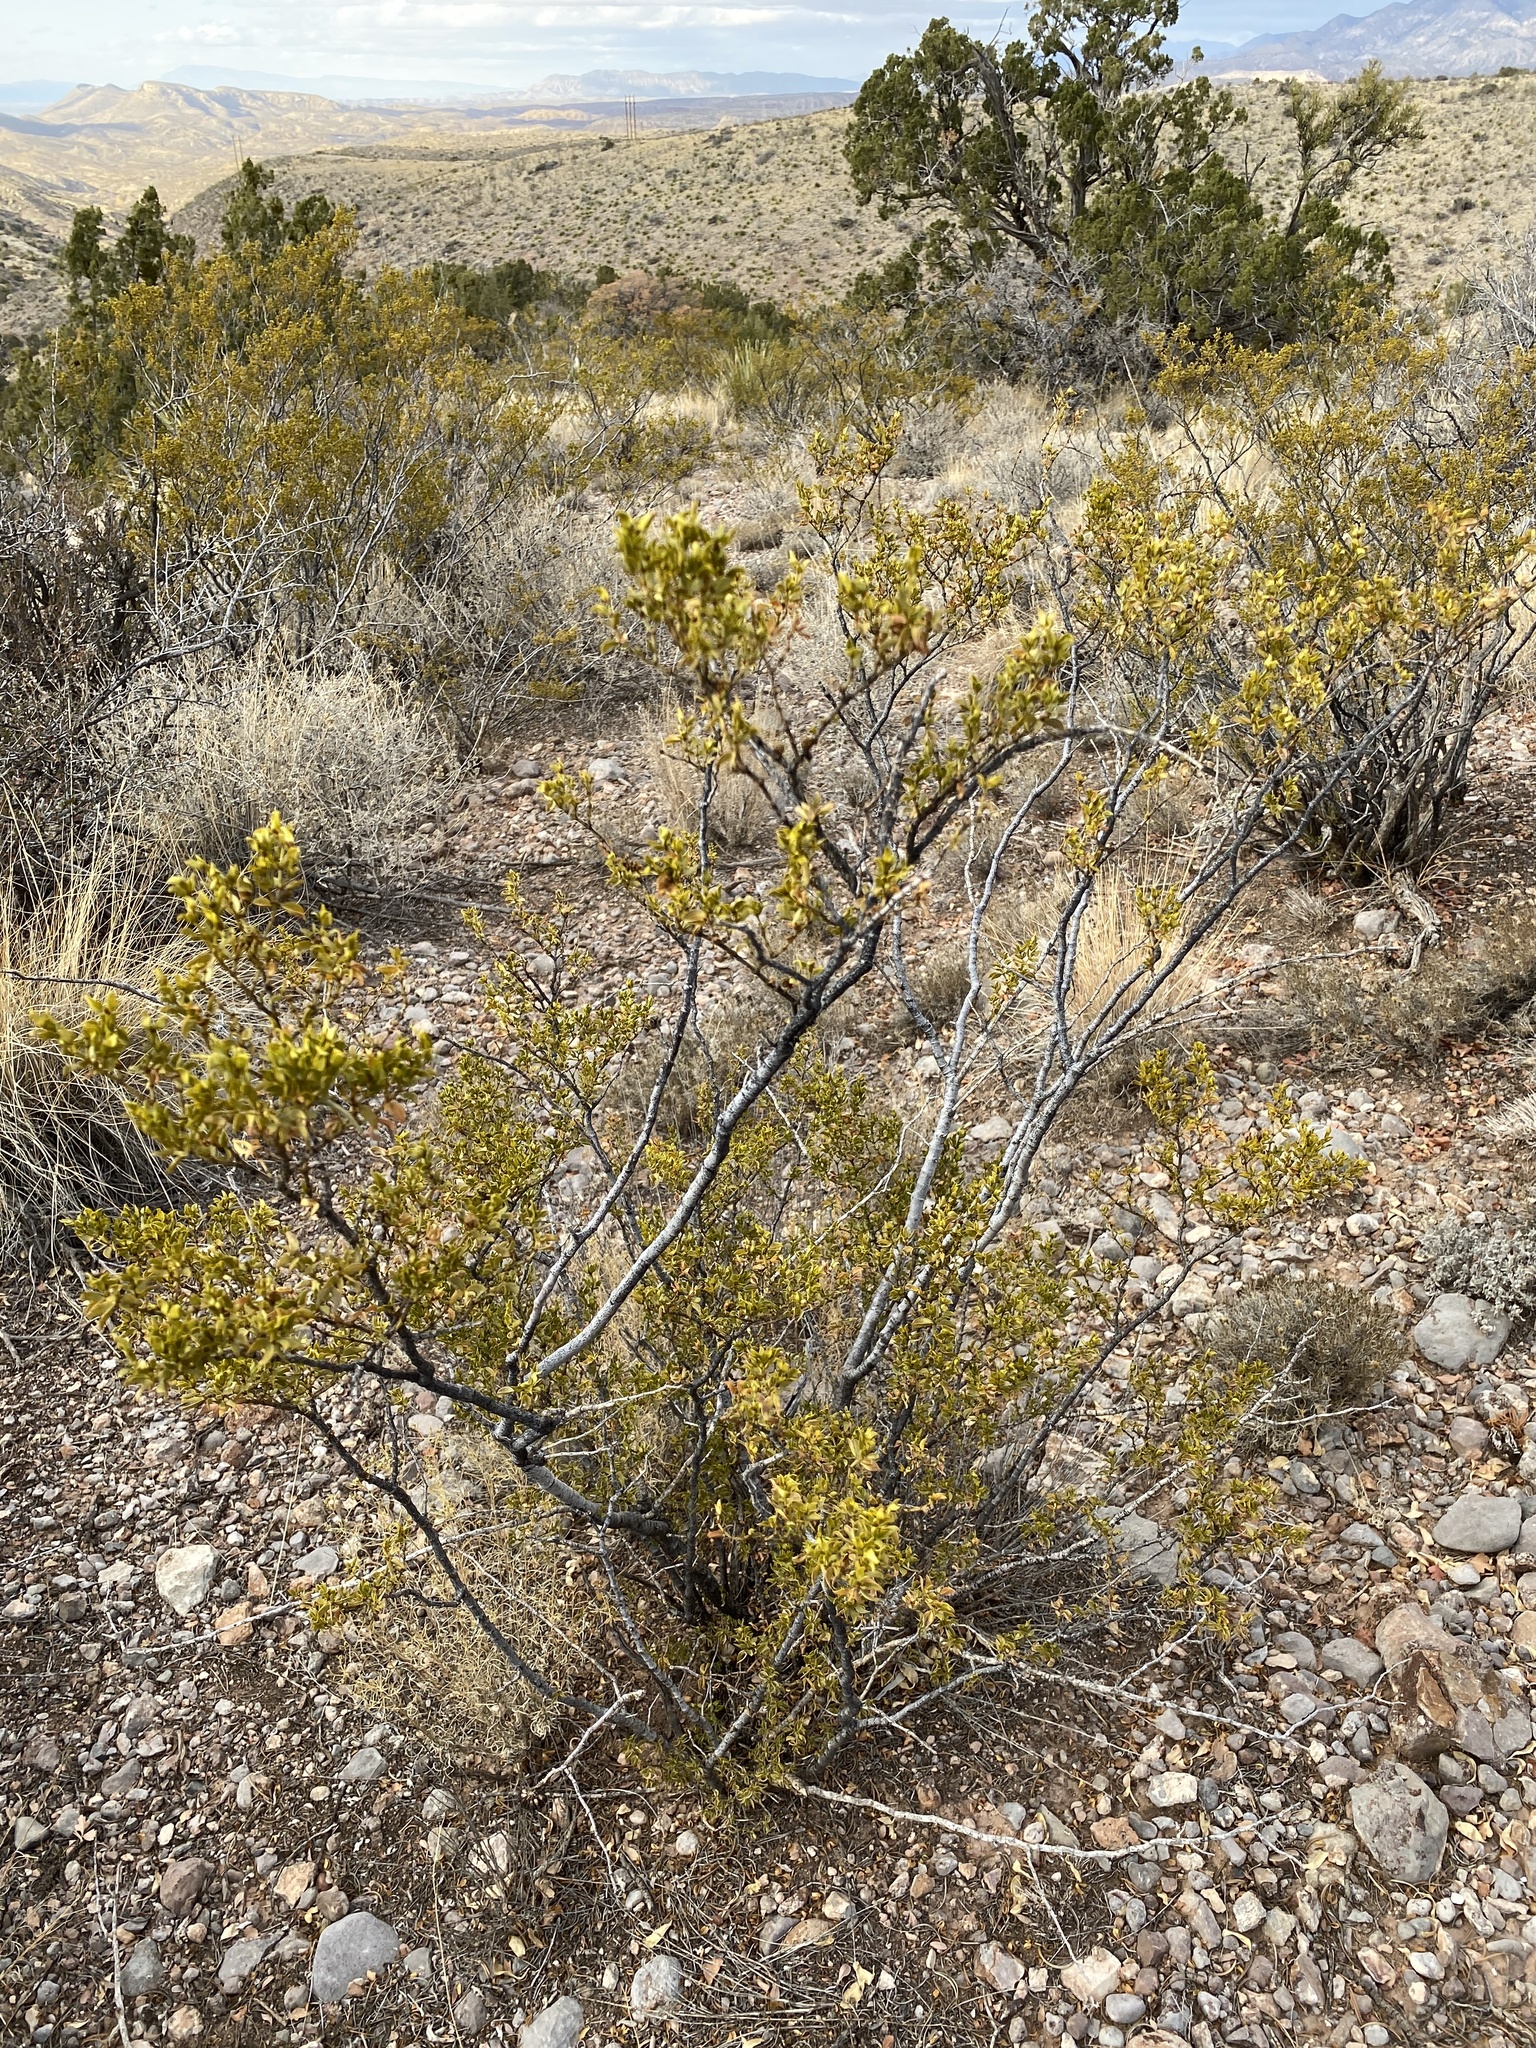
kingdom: Plantae
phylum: Tracheophyta
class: Magnoliopsida
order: Zygophyllales
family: Zygophyllaceae
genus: Larrea
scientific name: Larrea tridentata
